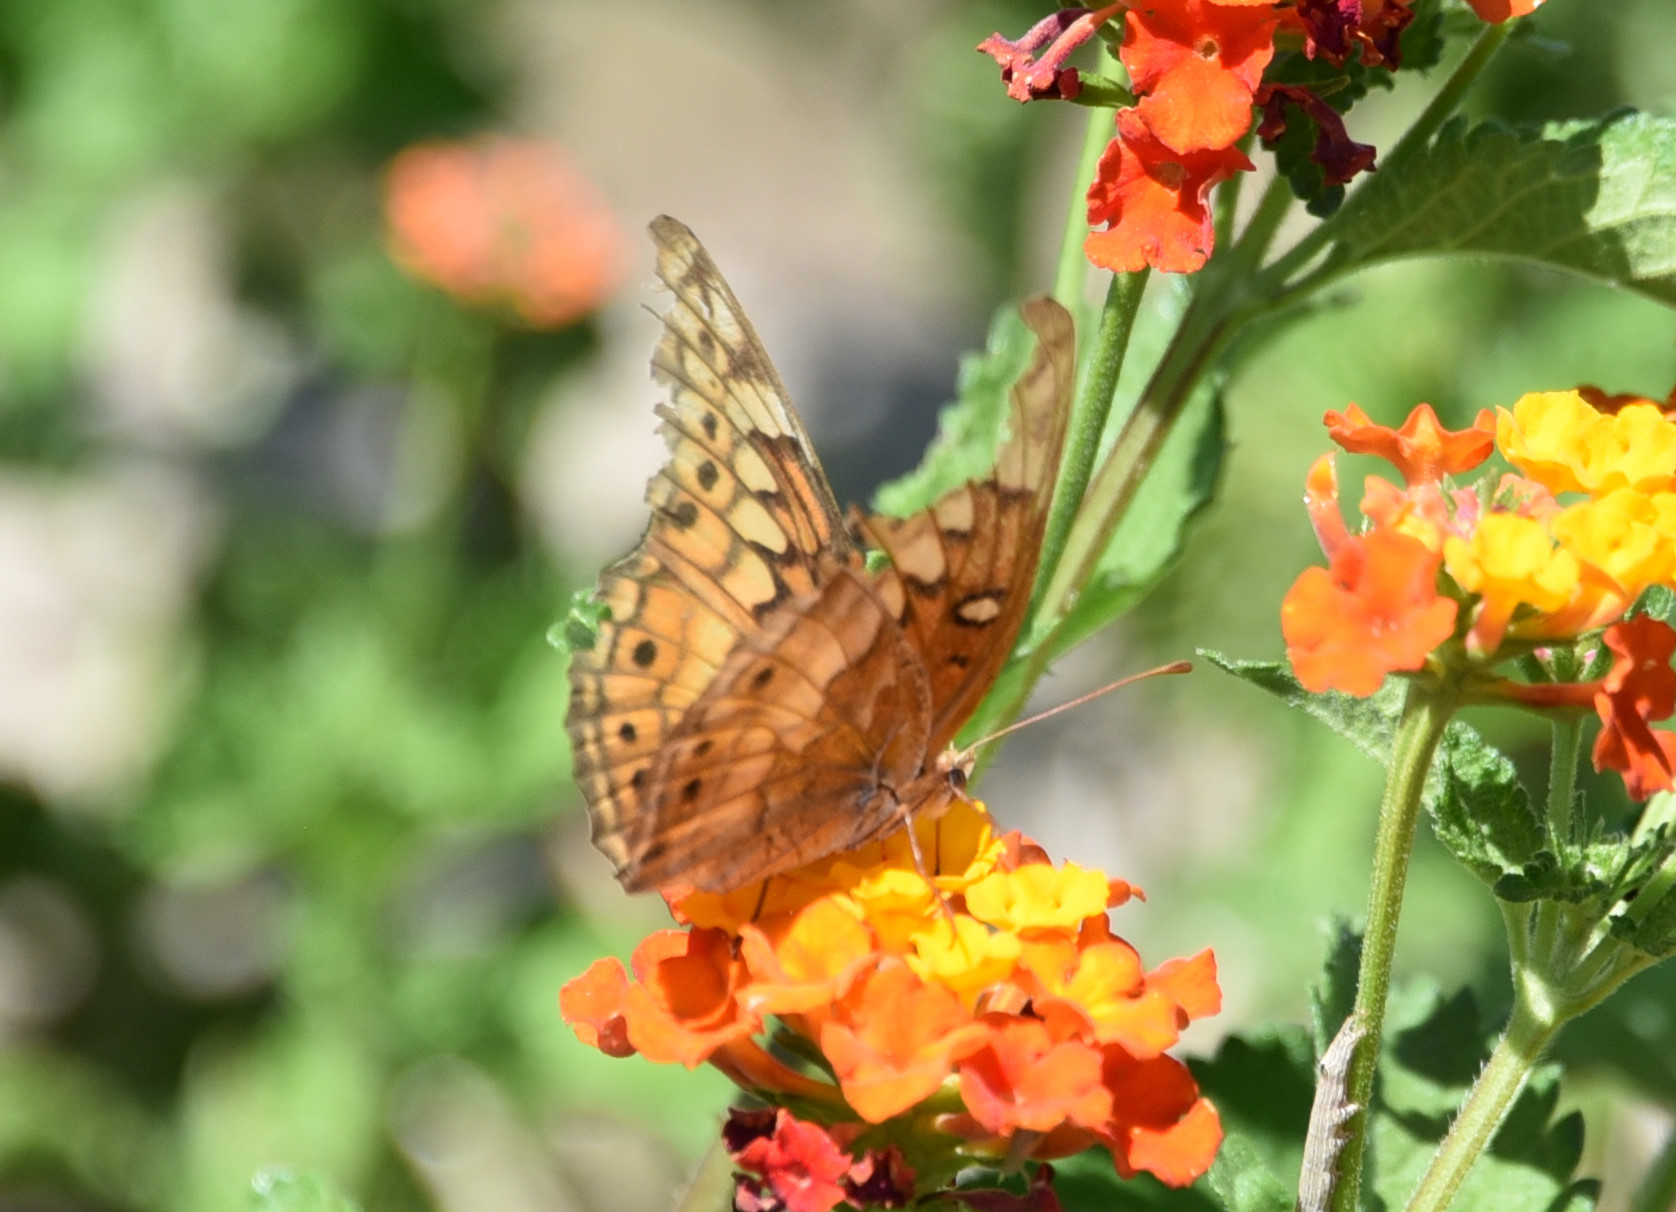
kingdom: Animalia
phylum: Arthropoda
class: Insecta
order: Lepidoptera
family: Nymphalidae
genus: Euptoieta
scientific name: Euptoieta claudia
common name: Variegated fritillary
